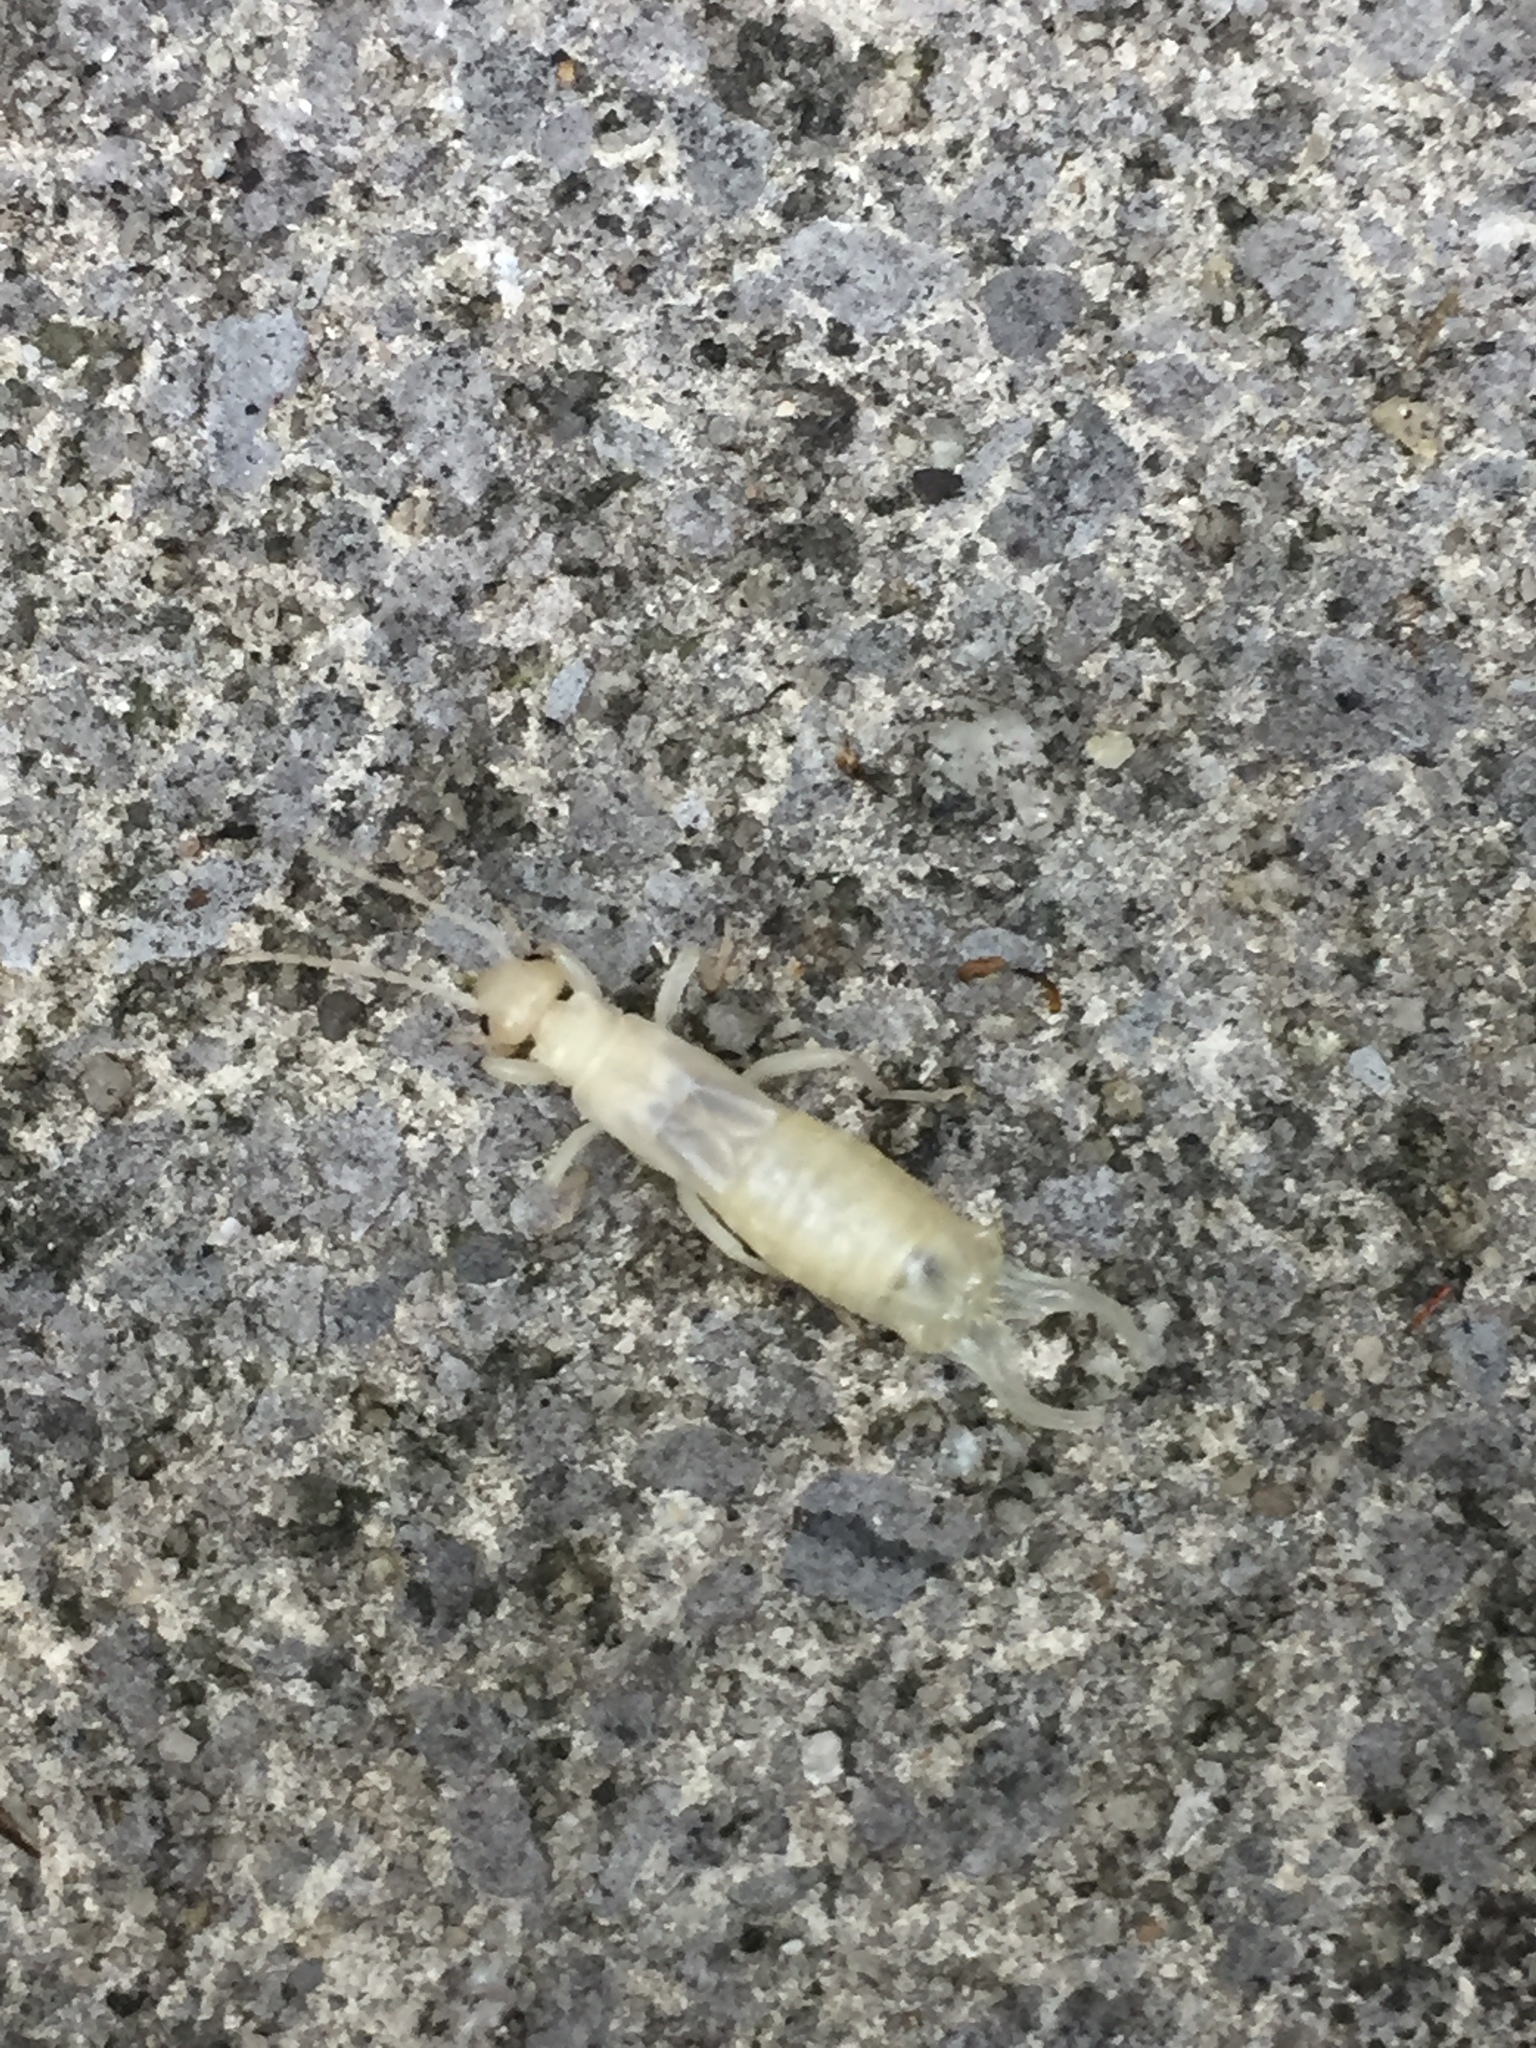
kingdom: Animalia
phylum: Arthropoda
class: Insecta
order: Dermaptera
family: Forficulidae
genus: Forficula
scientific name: Forficula
